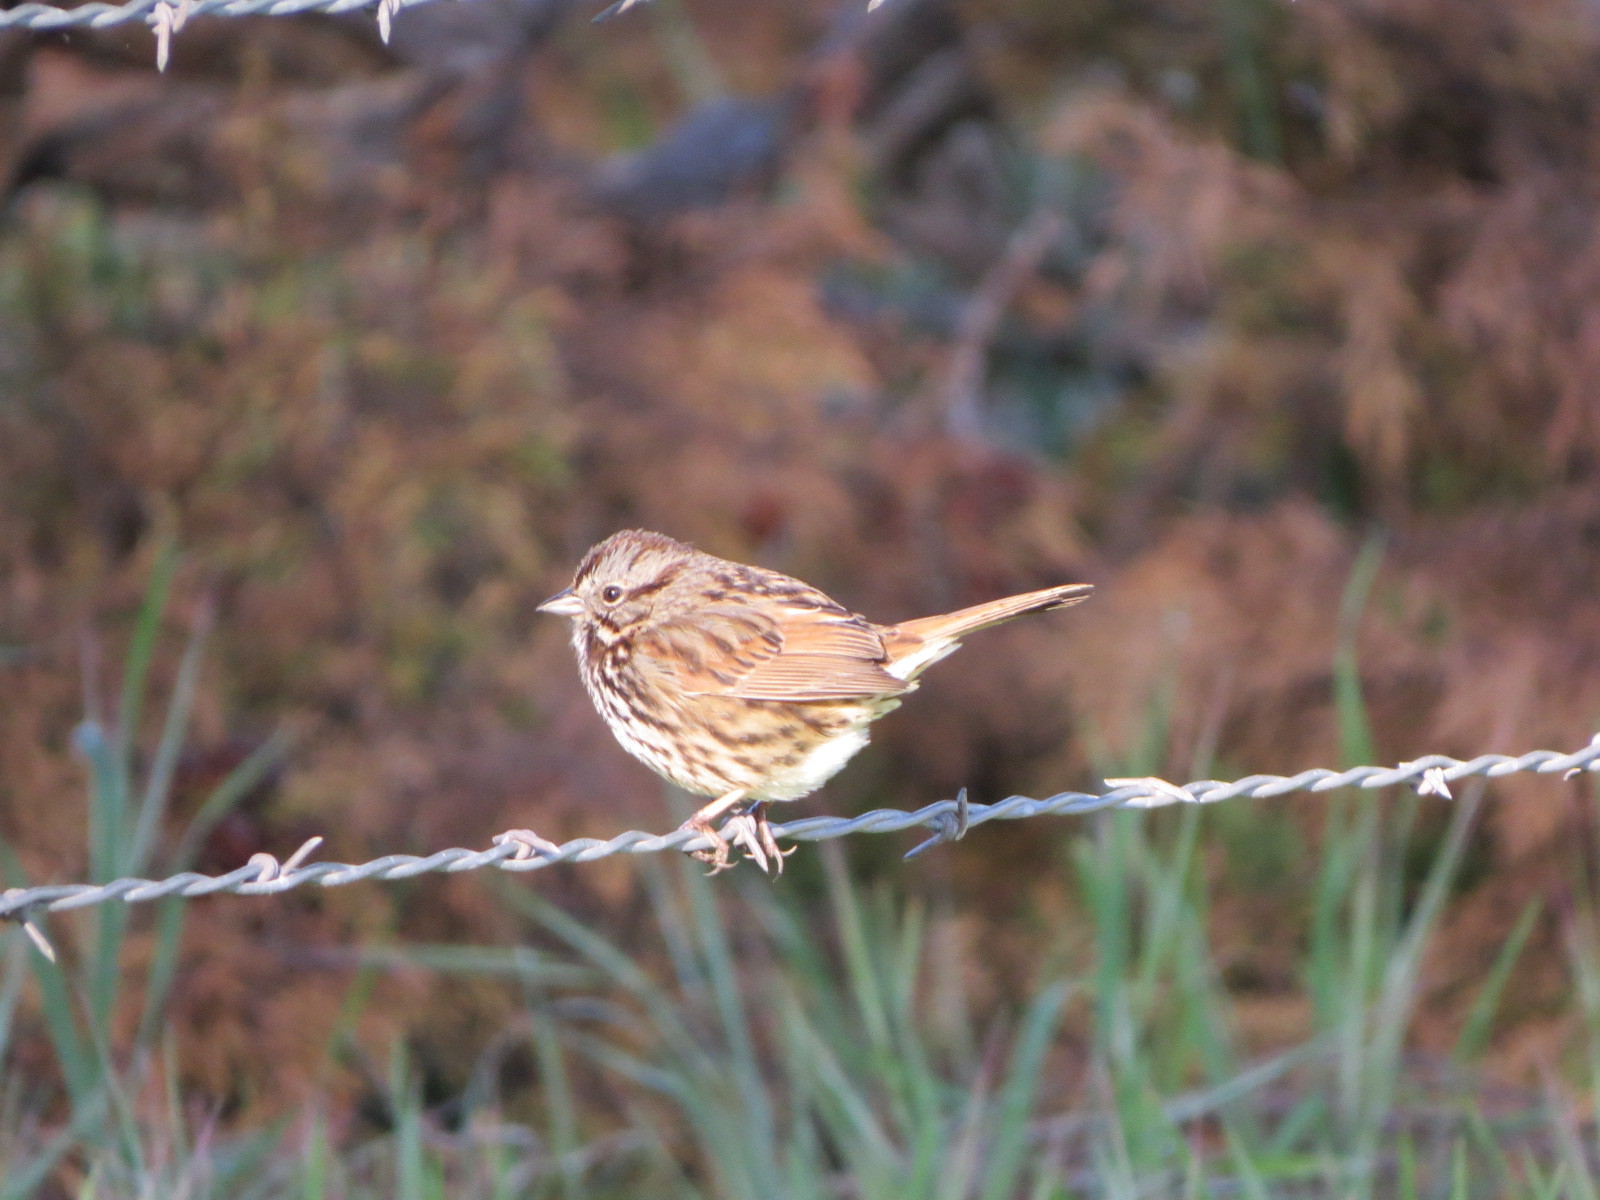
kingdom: Animalia
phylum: Chordata
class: Aves
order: Passeriformes
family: Passerellidae
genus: Melospiza
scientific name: Melospiza melodia
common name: Song sparrow
